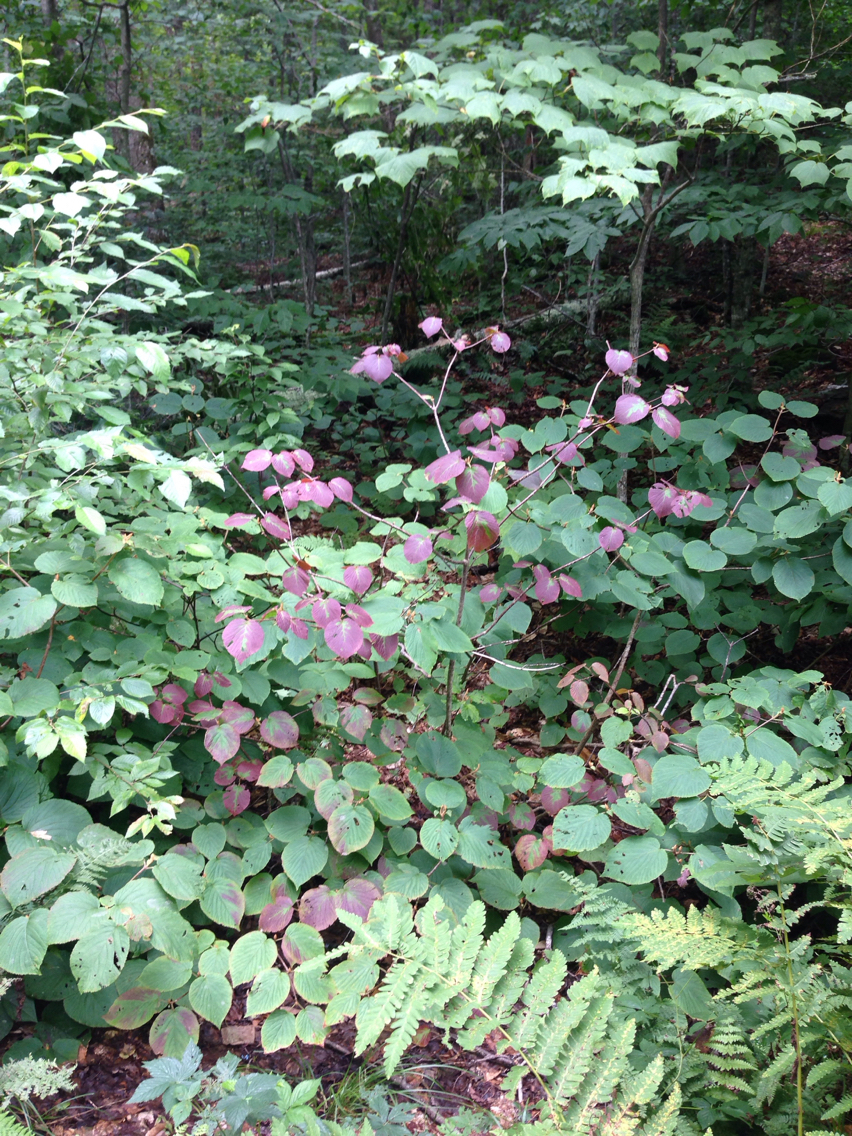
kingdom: Plantae
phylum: Tracheophyta
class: Magnoliopsida
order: Dipsacales
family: Viburnaceae
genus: Viburnum
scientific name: Viburnum lantanoides
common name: Hobblebush
